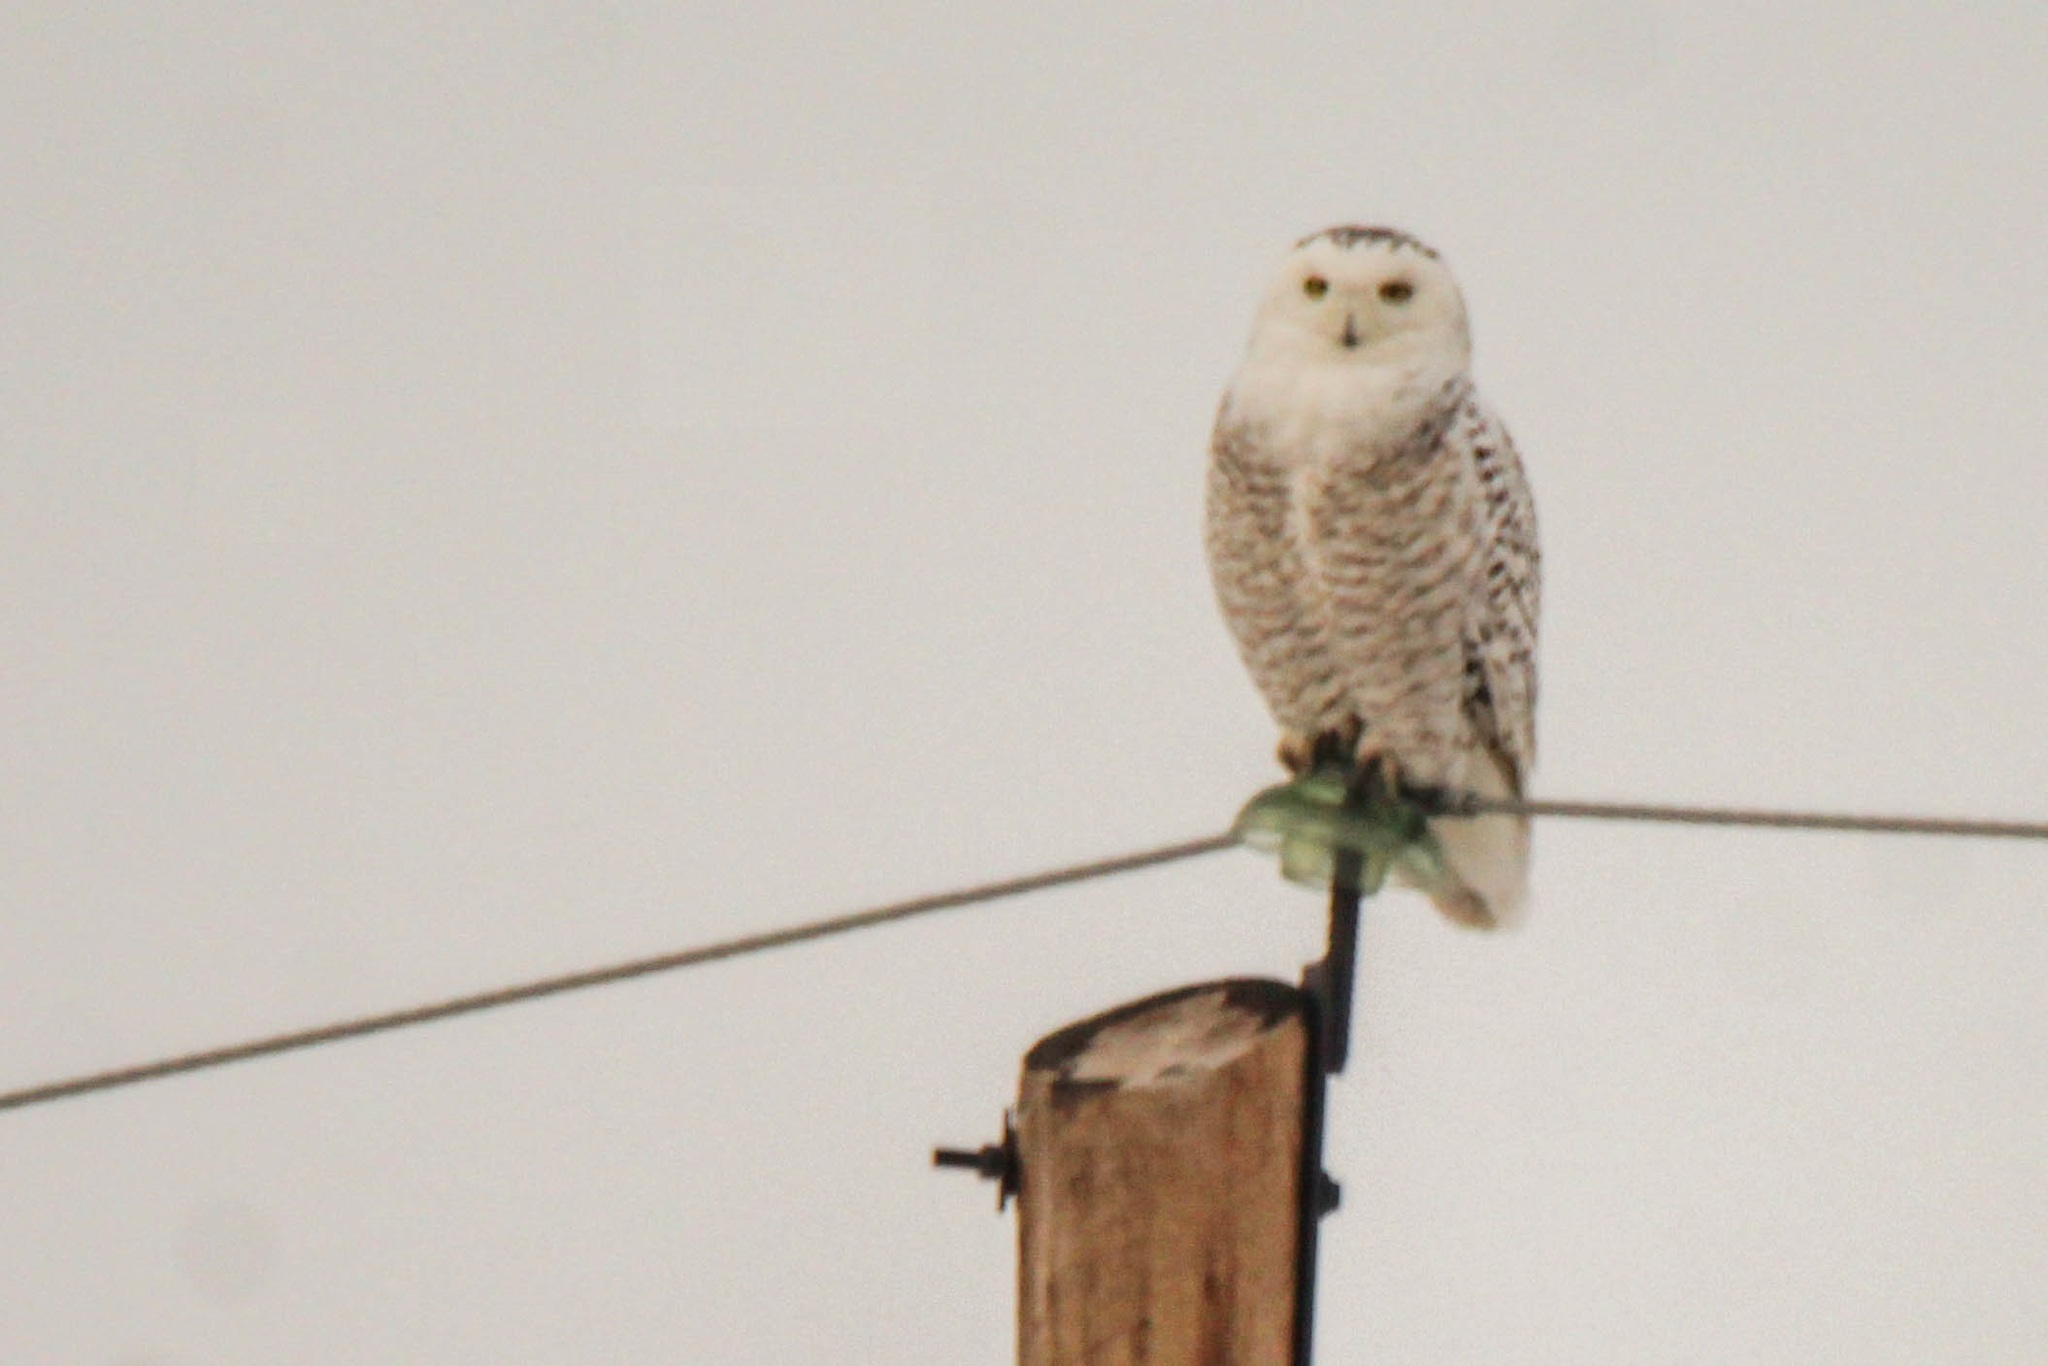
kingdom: Animalia
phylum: Chordata
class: Aves
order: Strigiformes
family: Strigidae
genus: Bubo
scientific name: Bubo scandiacus
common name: Snowy owl
